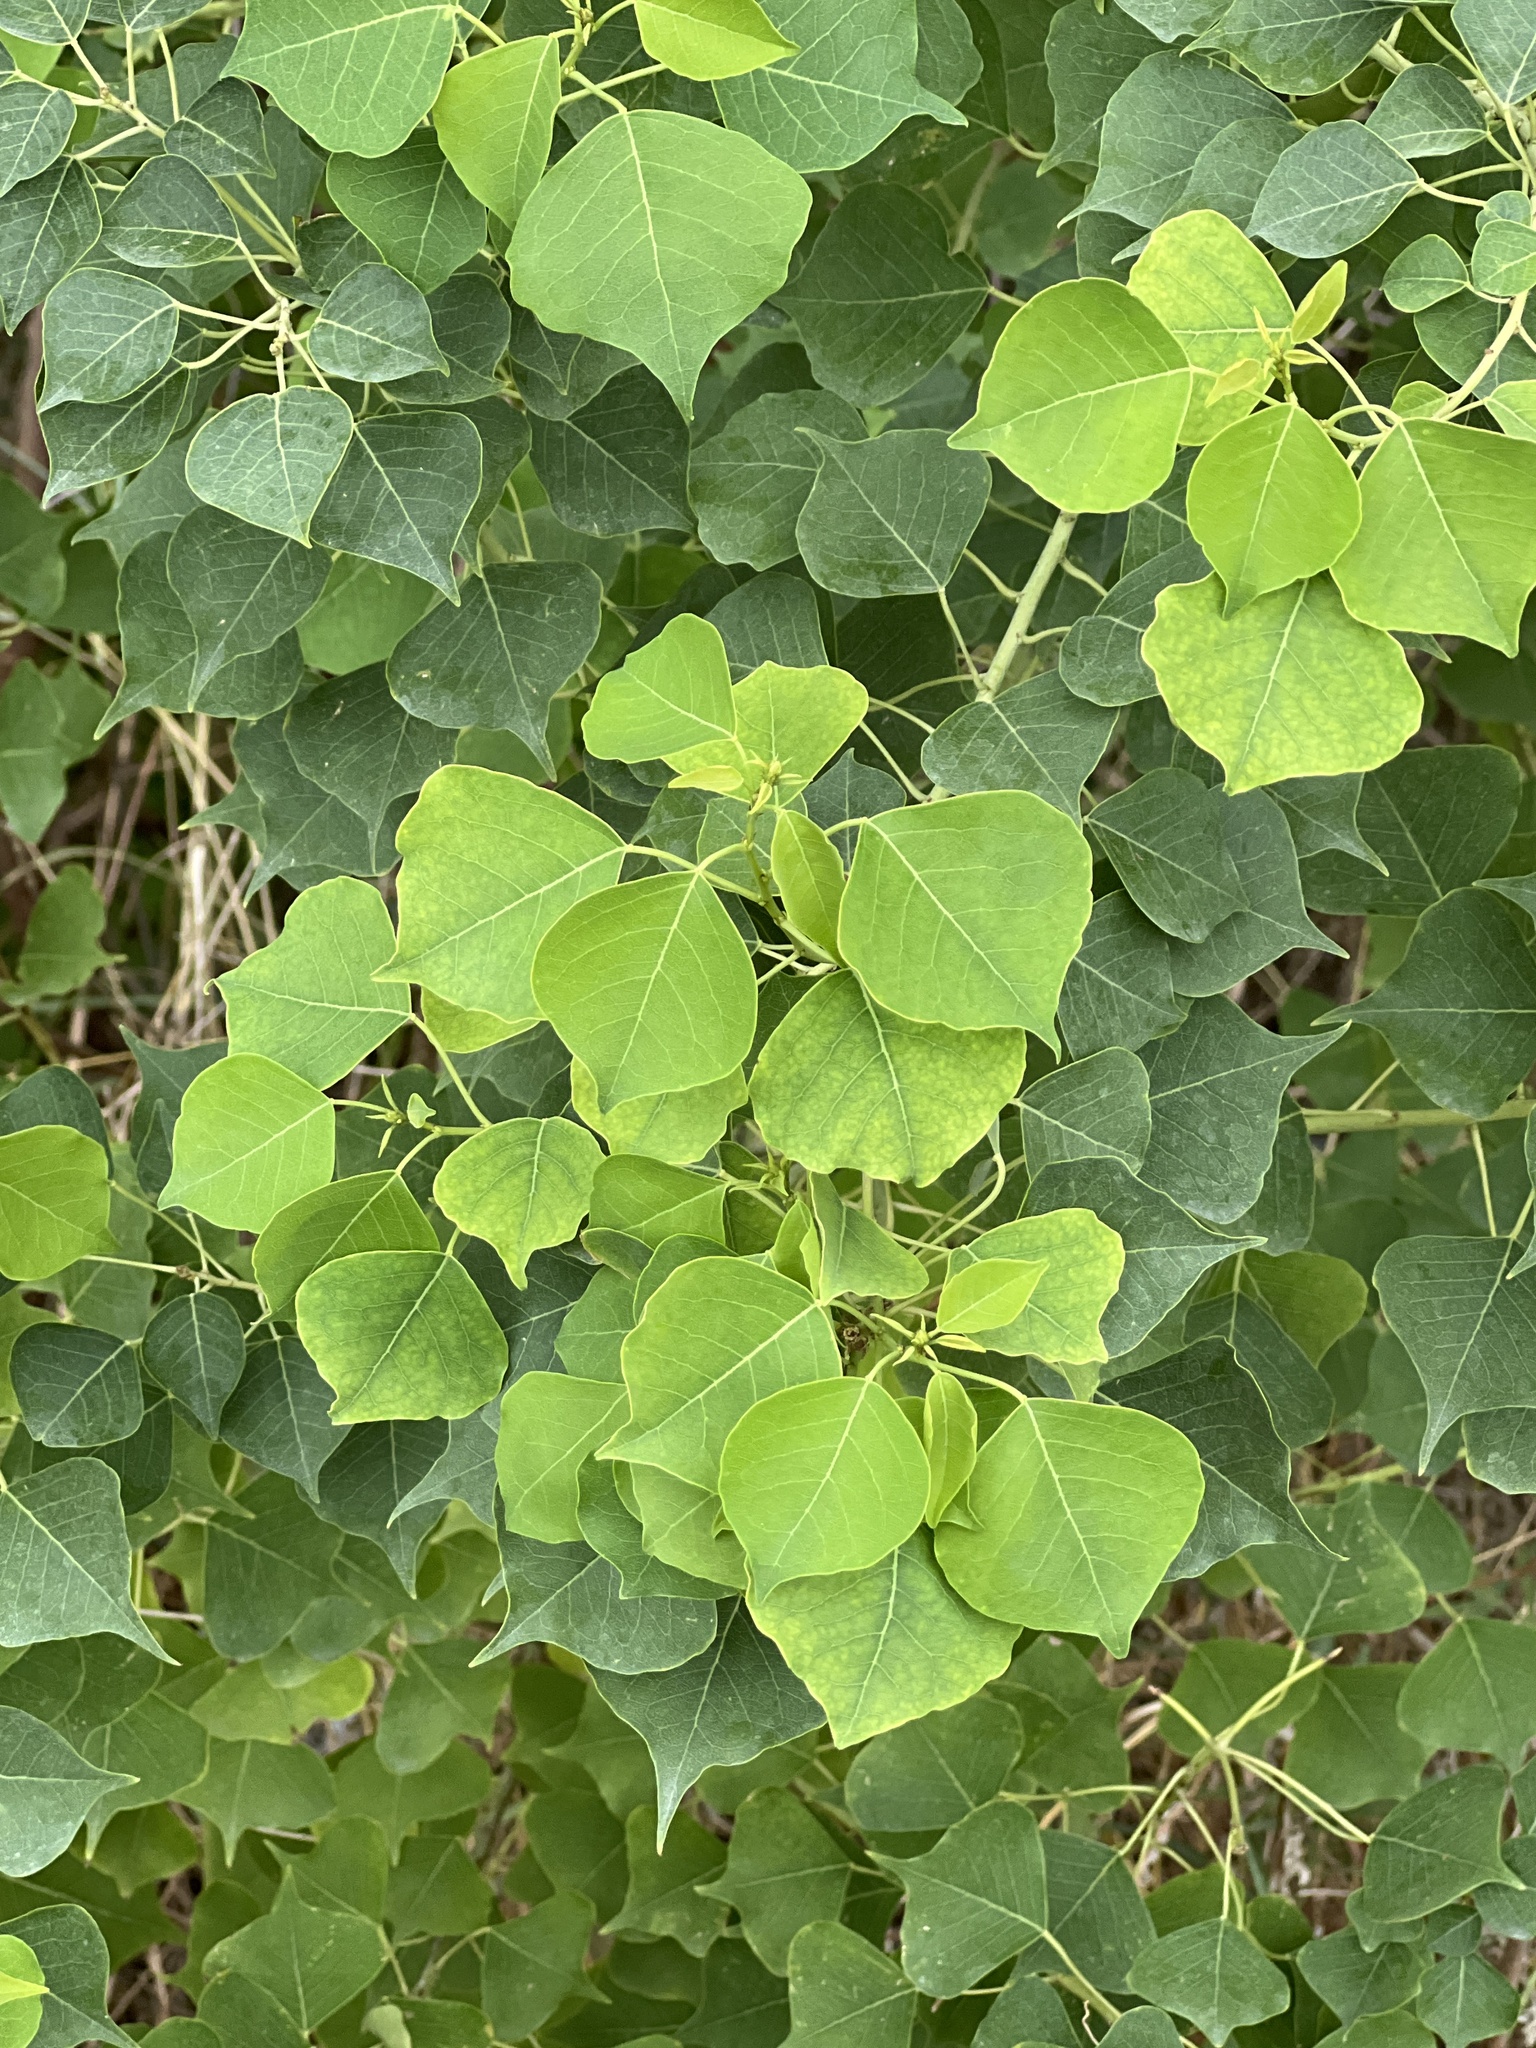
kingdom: Plantae
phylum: Tracheophyta
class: Magnoliopsida
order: Malpighiales
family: Euphorbiaceae
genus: Triadica
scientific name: Triadica sebifera
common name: Chinese tallow
